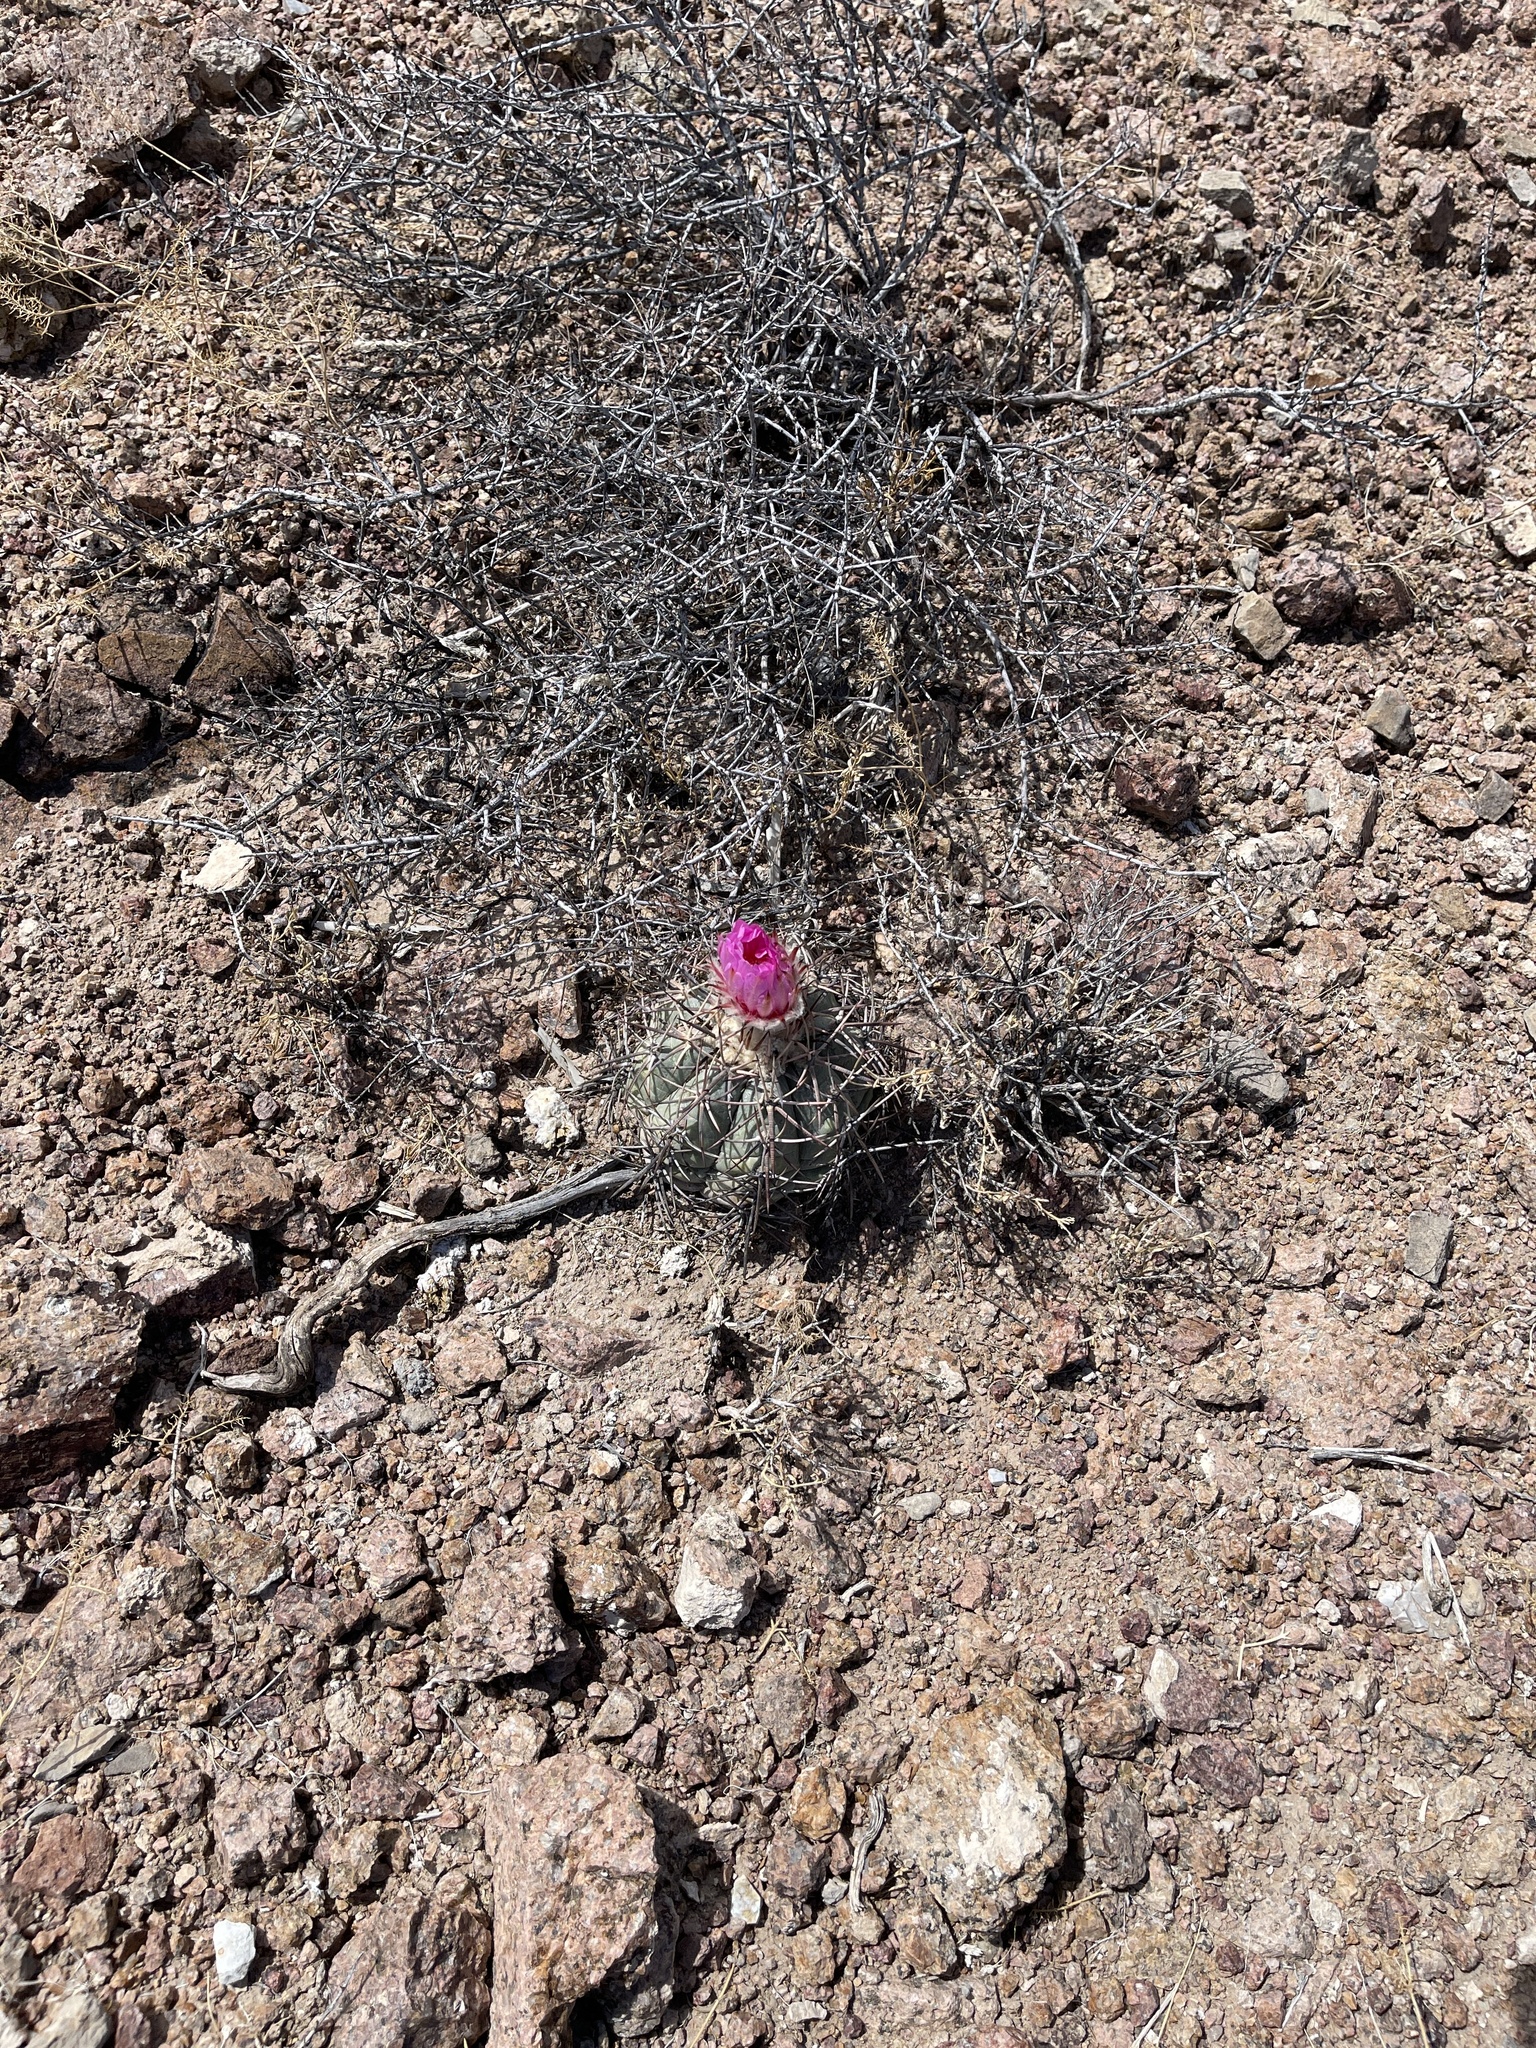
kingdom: Plantae
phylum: Tracheophyta
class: Magnoliopsida
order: Caryophyllales
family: Cactaceae
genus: Echinocactus
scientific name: Echinocactus horizonthalonius
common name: Devilshead
